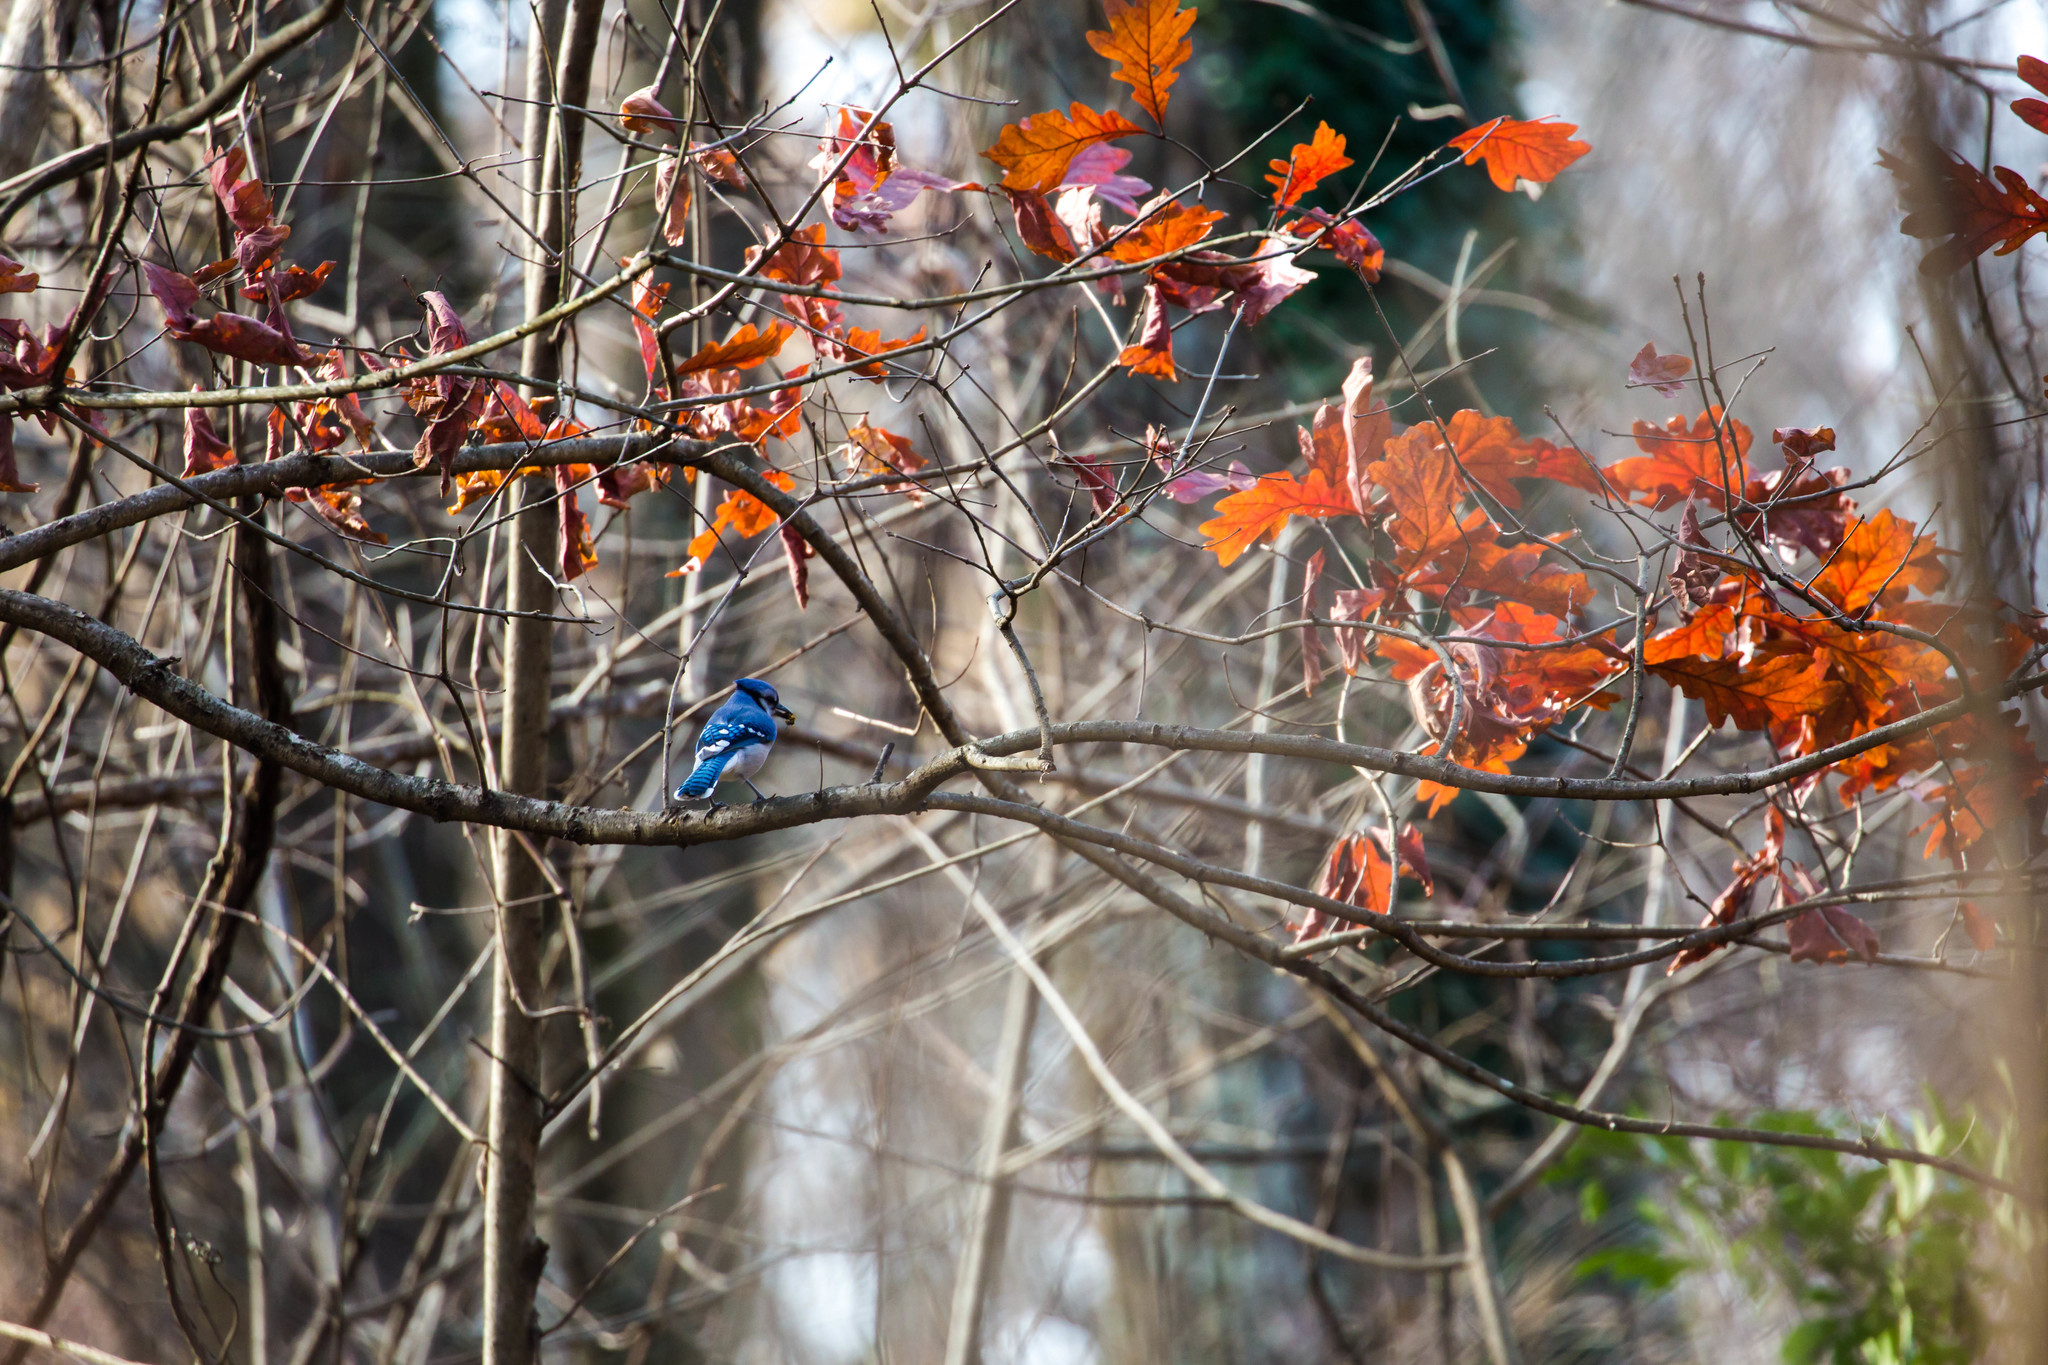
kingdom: Animalia
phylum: Chordata
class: Aves
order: Passeriformes
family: Corvidae
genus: Cyanocitta
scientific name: Cyanocitta cristata
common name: Blue jay
